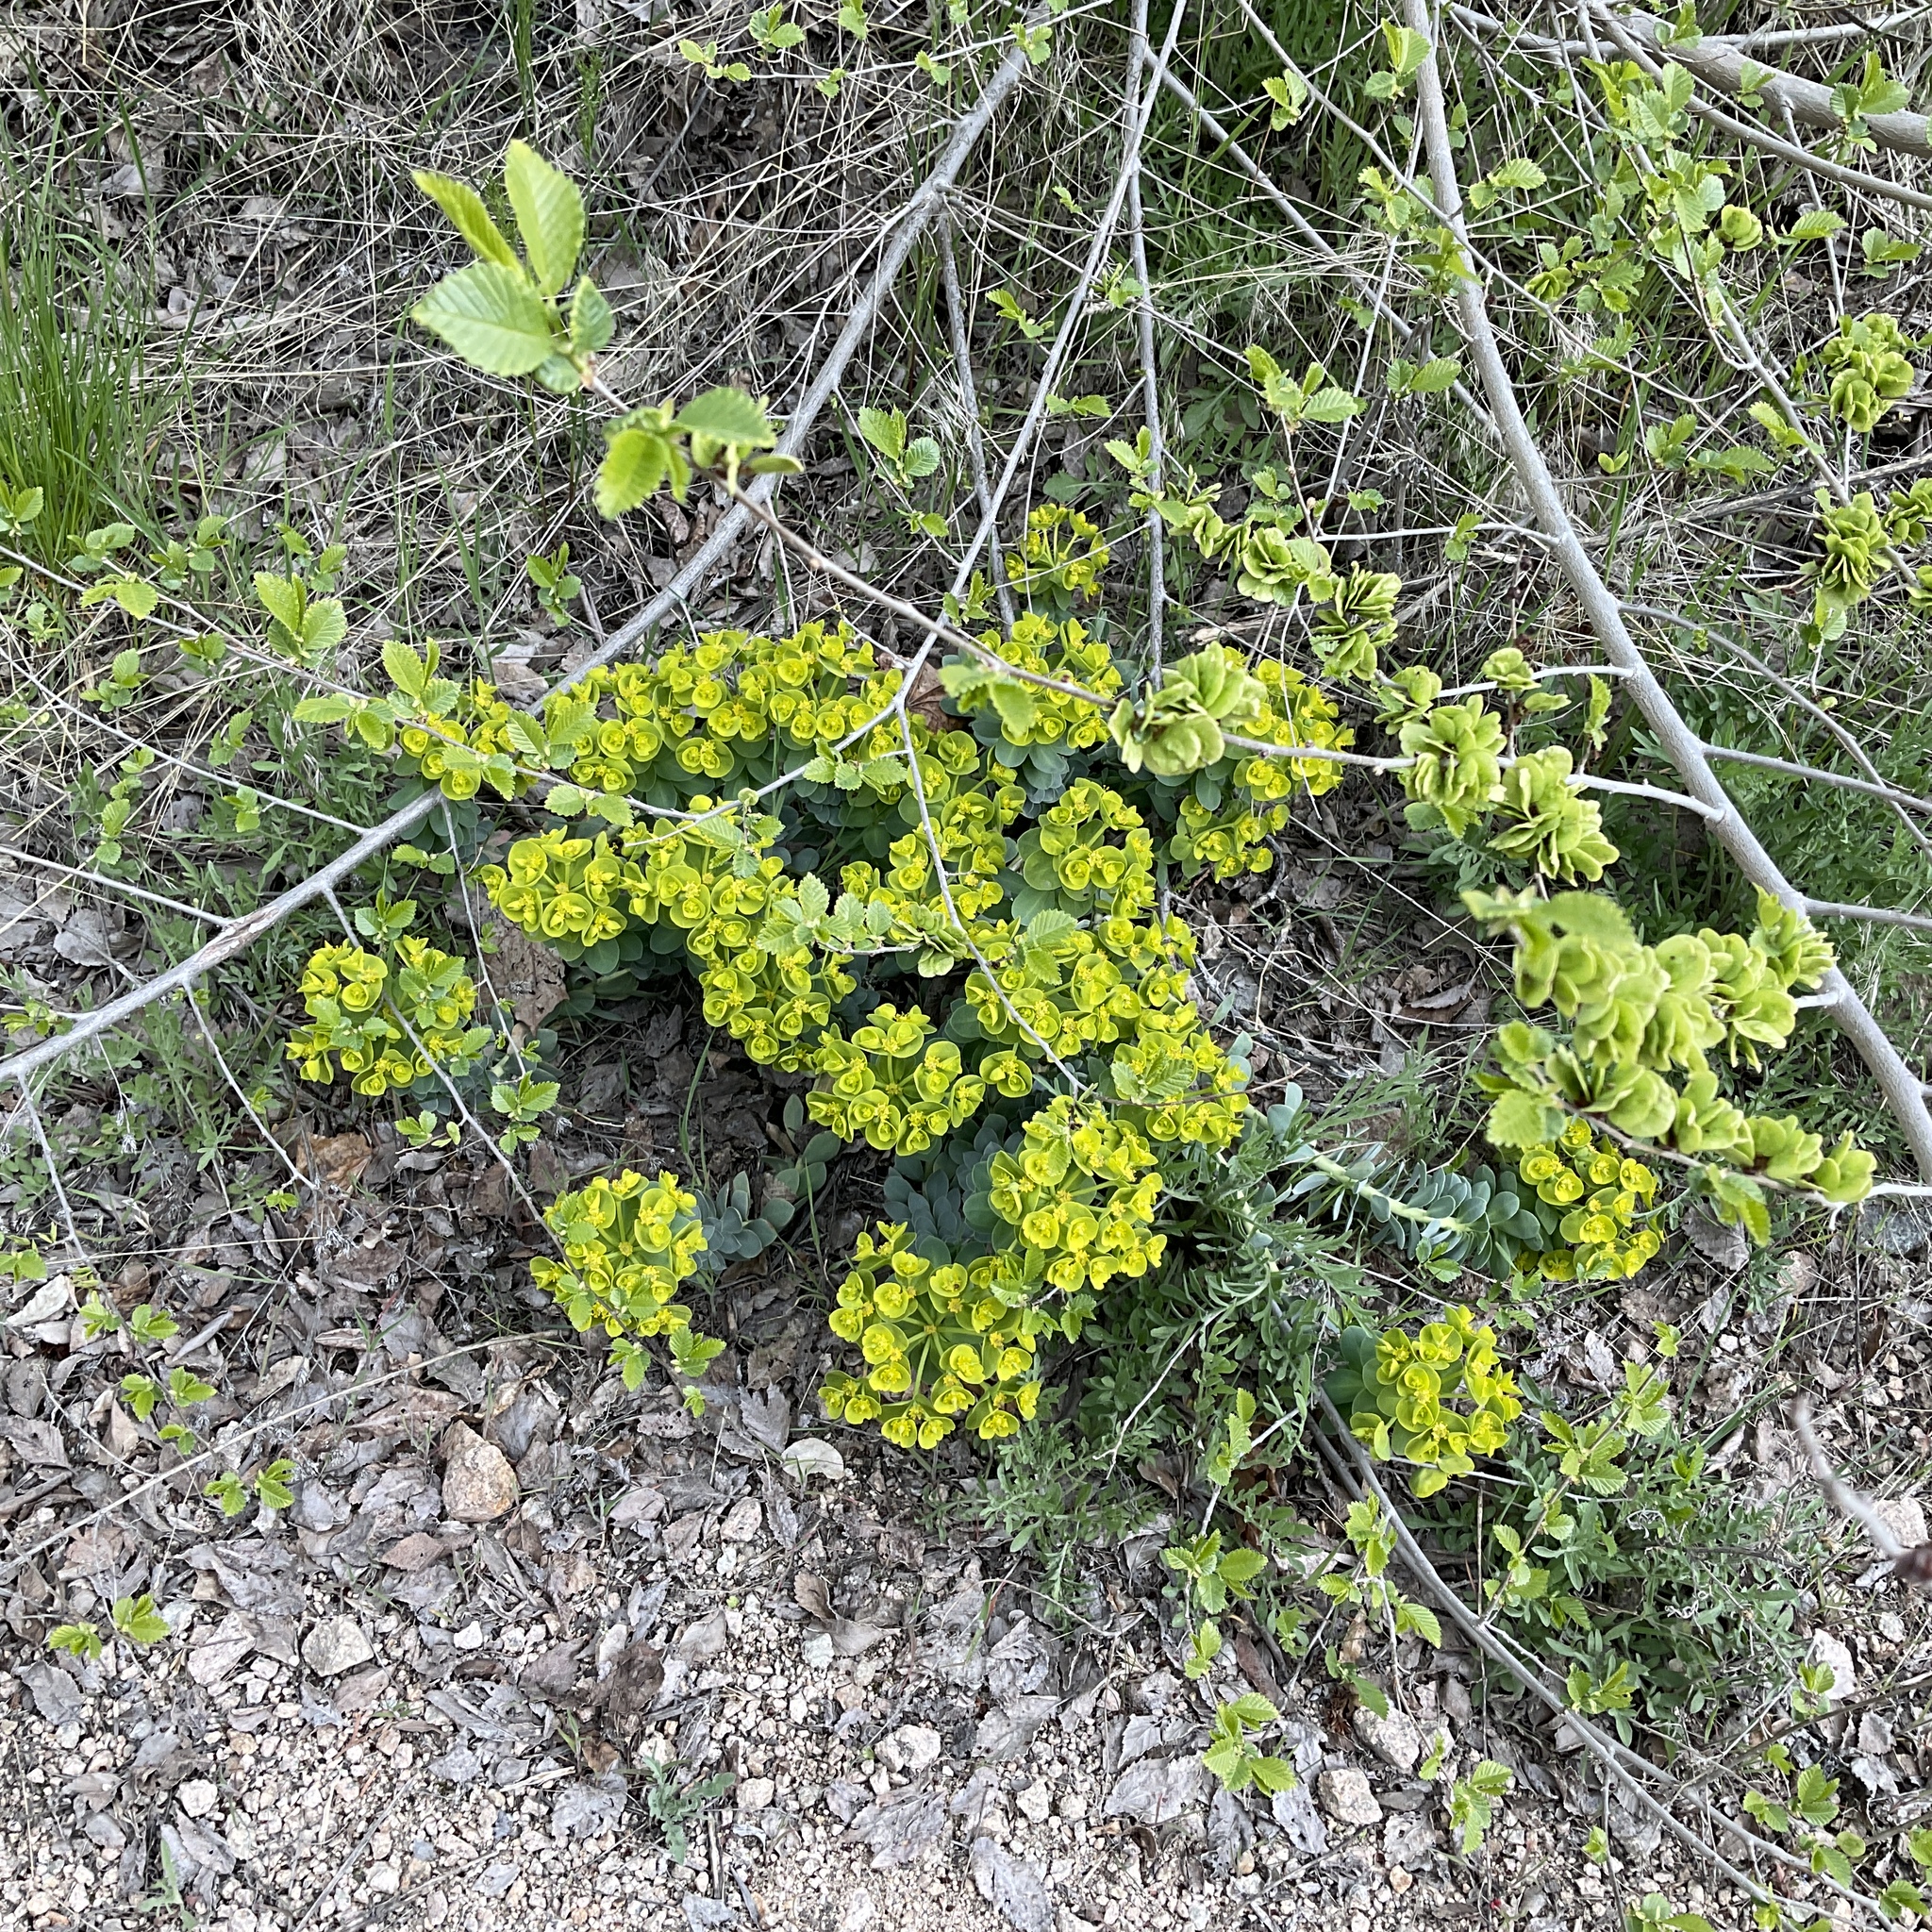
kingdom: Plantae
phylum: Tracheophyta
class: Magnoliopsida
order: Malpighiales
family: Euphorbiaceae
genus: Euphorbia
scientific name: Euphorbia myrsinites
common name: Myrtle spurge
